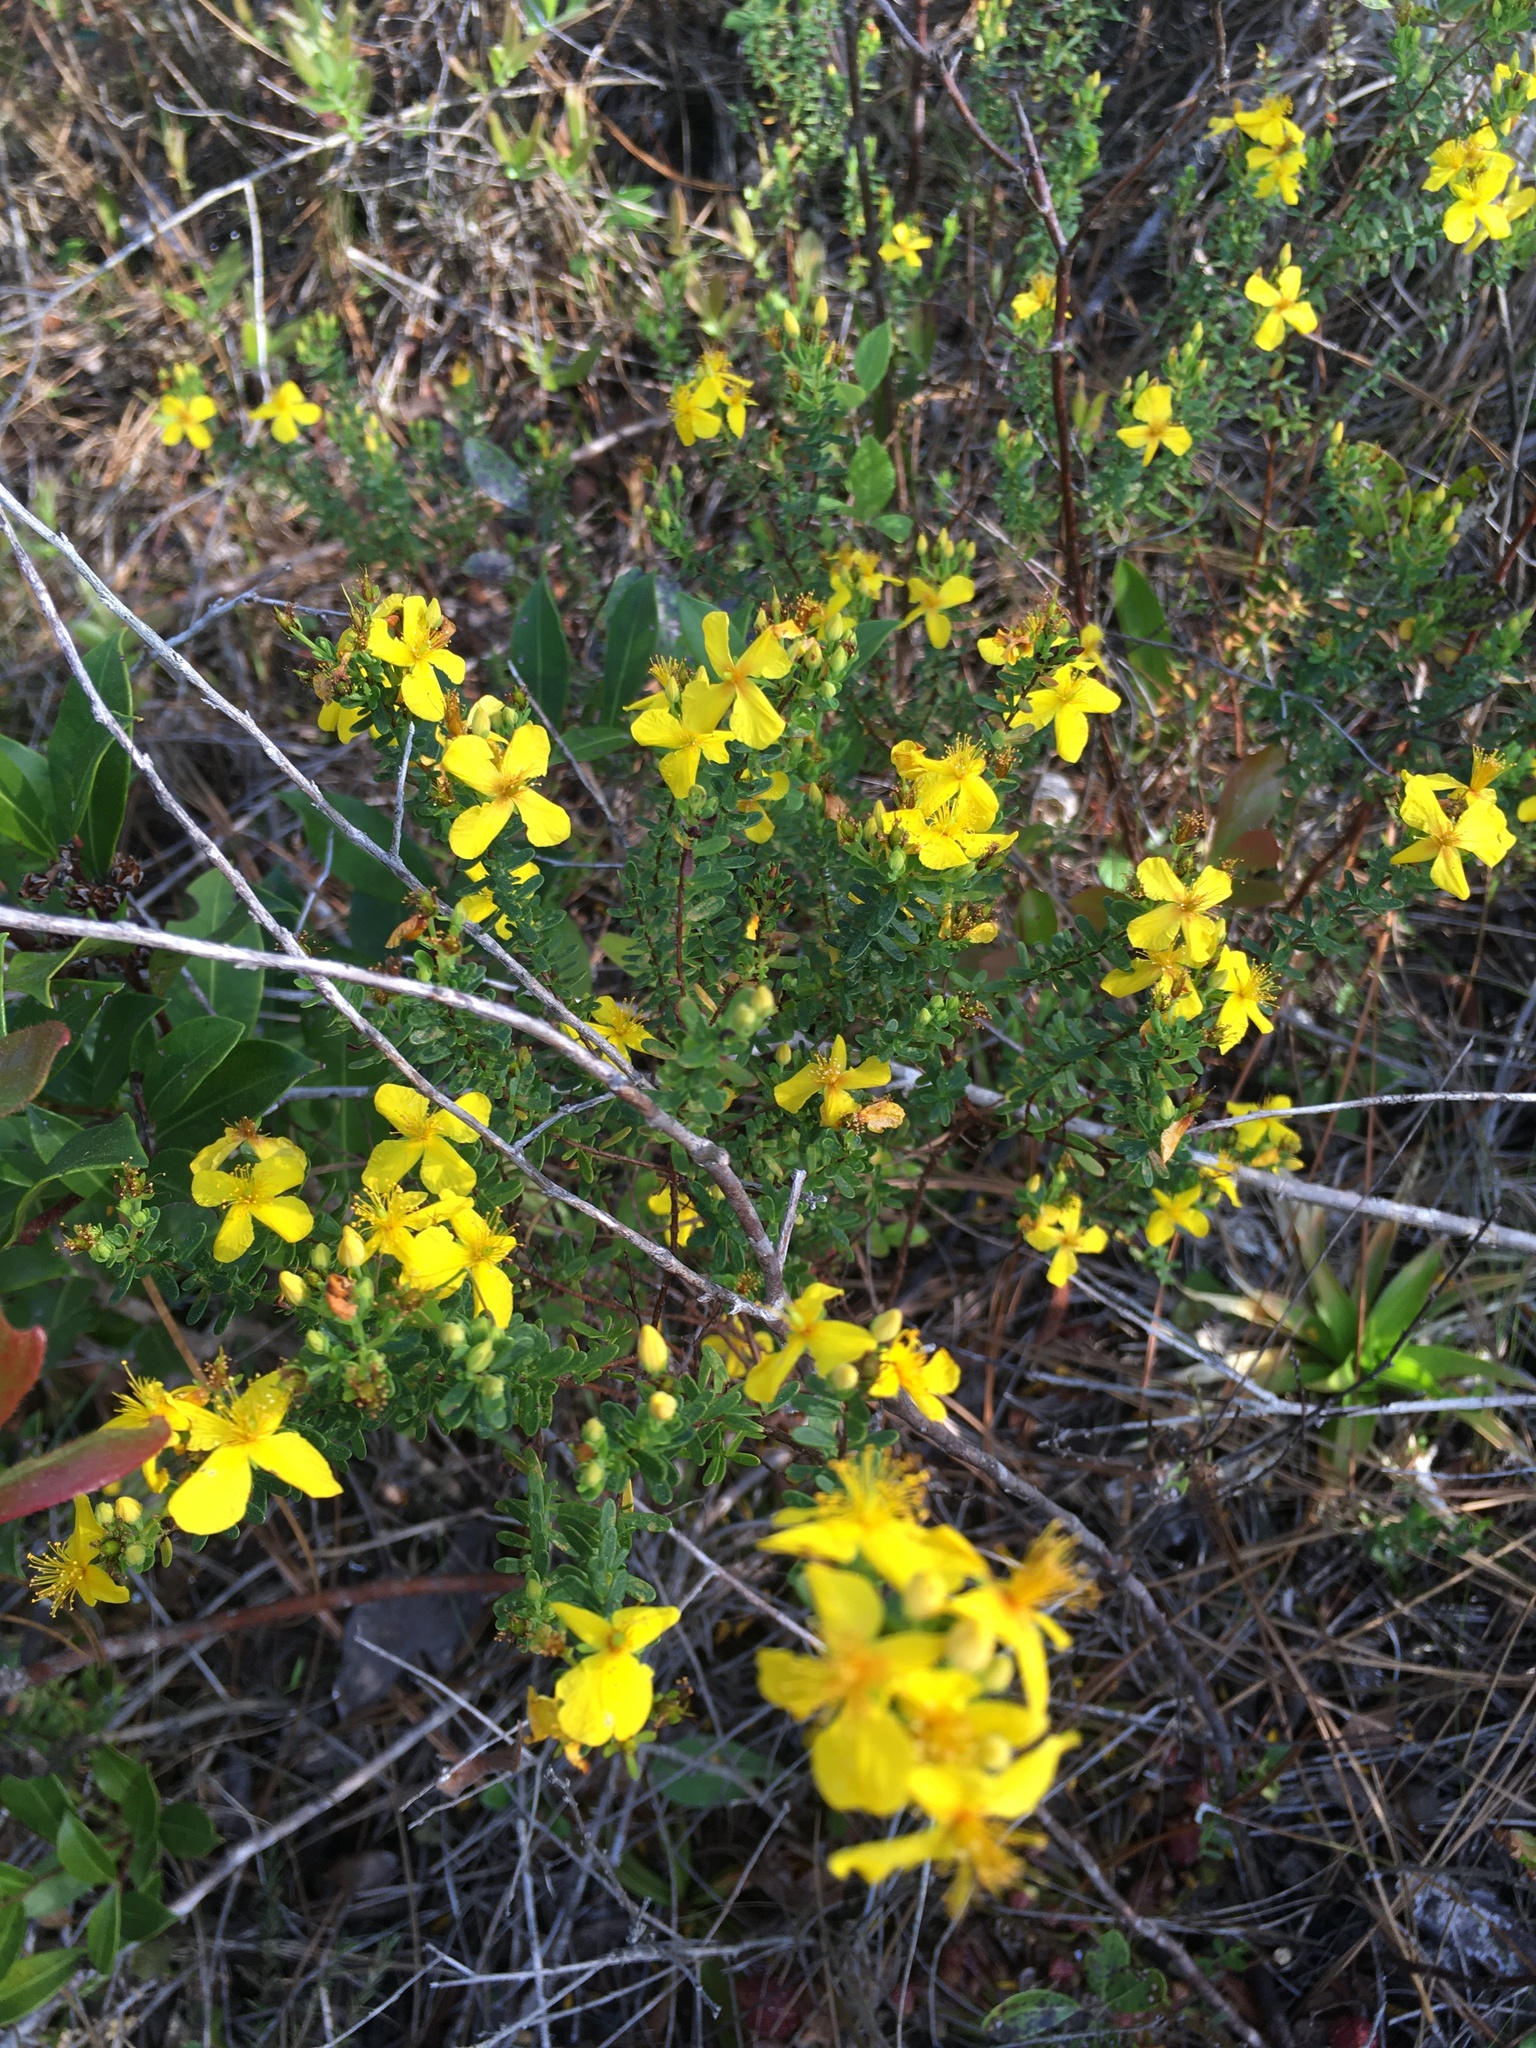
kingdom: Plantae
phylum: Tracheophyta
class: Magnoliopsida
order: Malpighiales
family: Hypericaceae
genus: Hypericum
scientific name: Hypericum microsepalum
